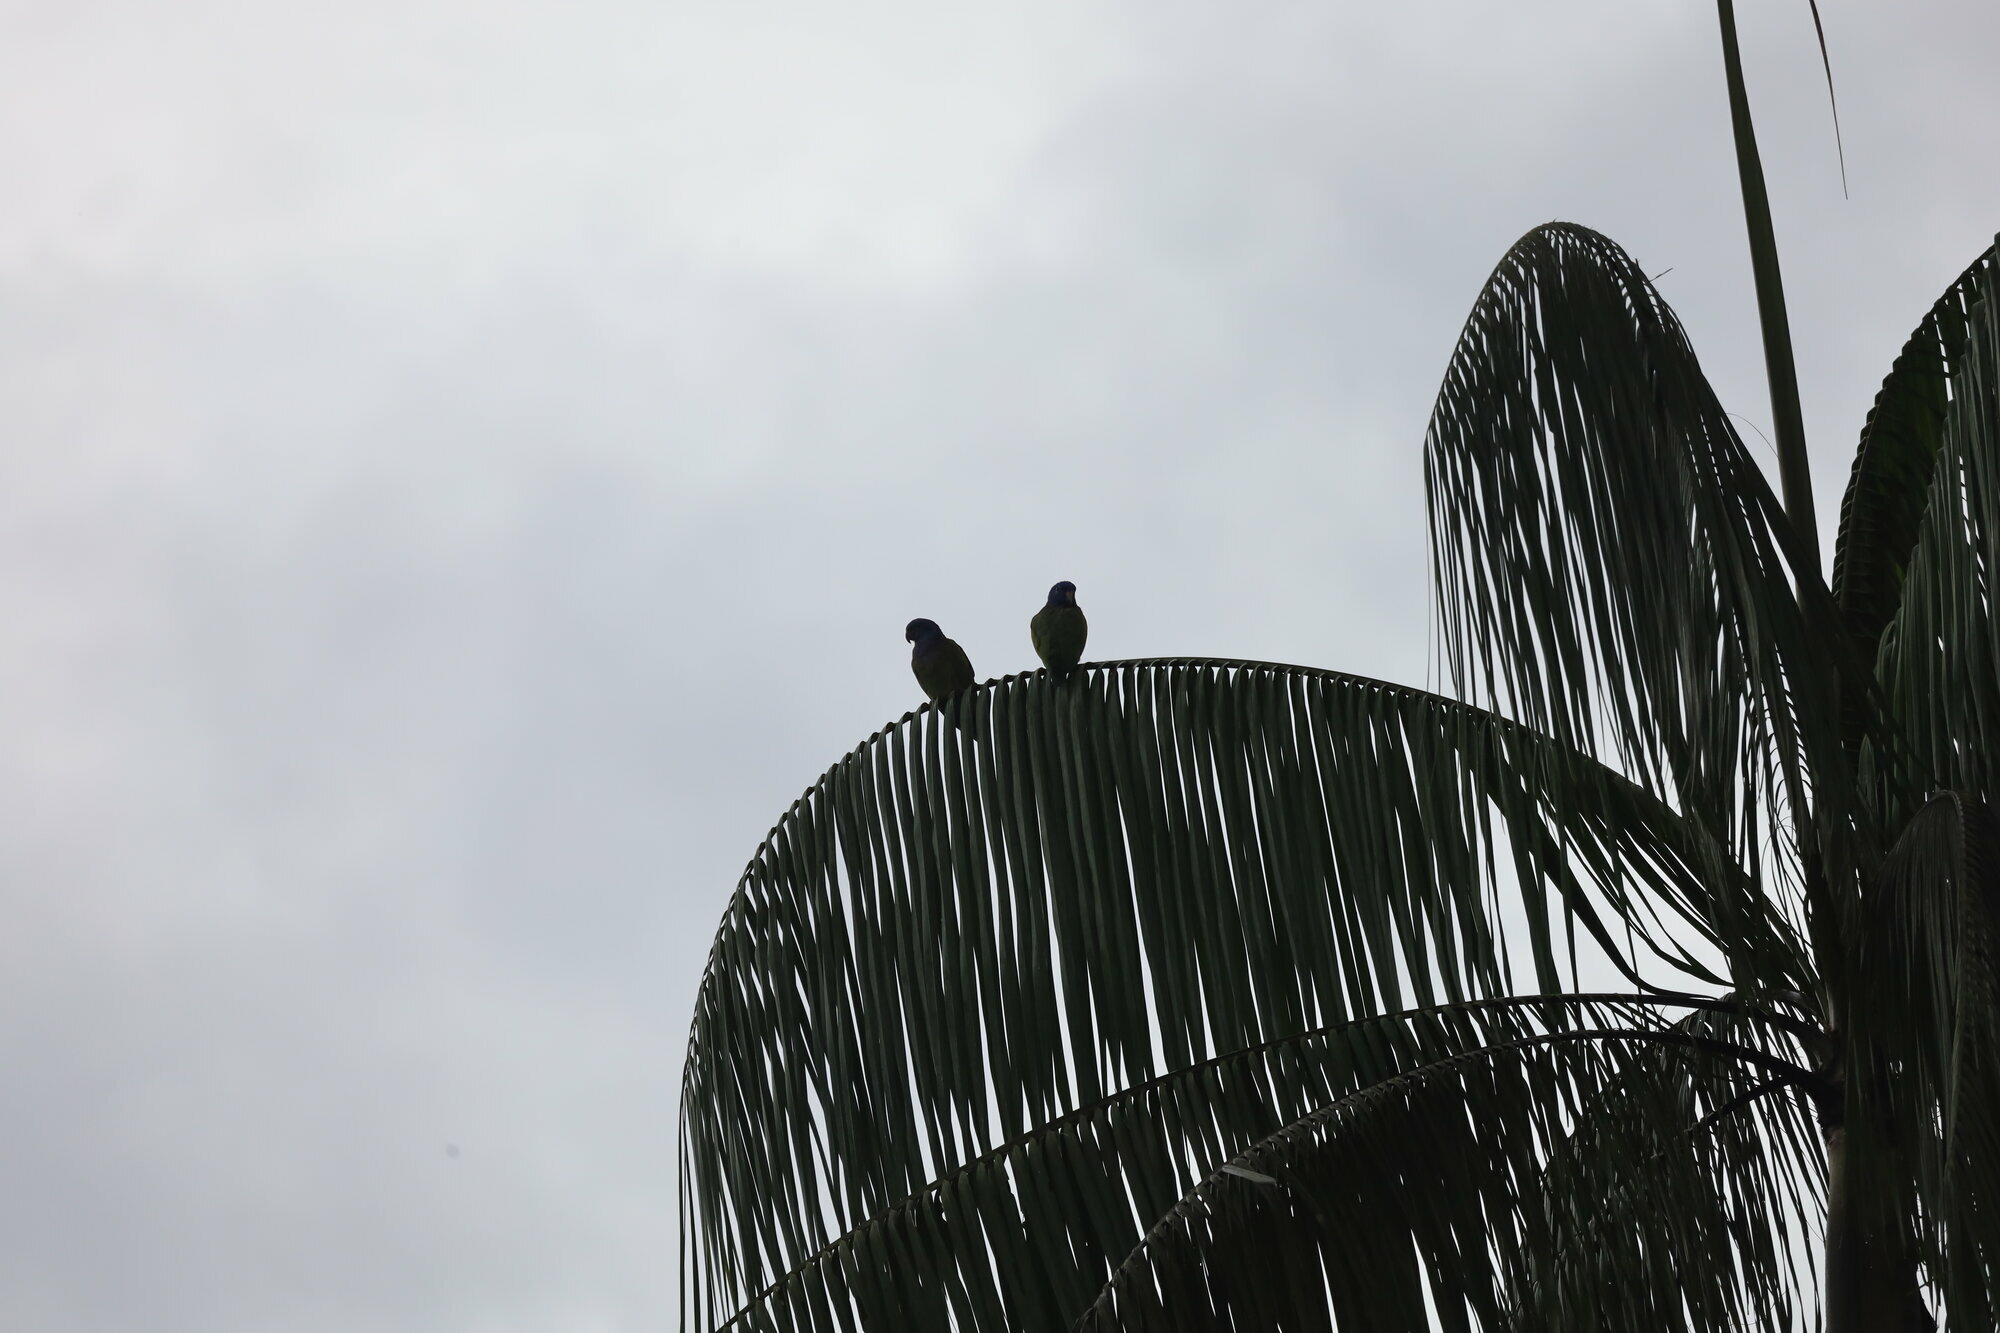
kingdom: Animalia
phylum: Chordata
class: Aves
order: Psittaciformes
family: Psittacidae
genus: Pionus
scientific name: Pionus menstruus
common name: Blue-headed parrot
